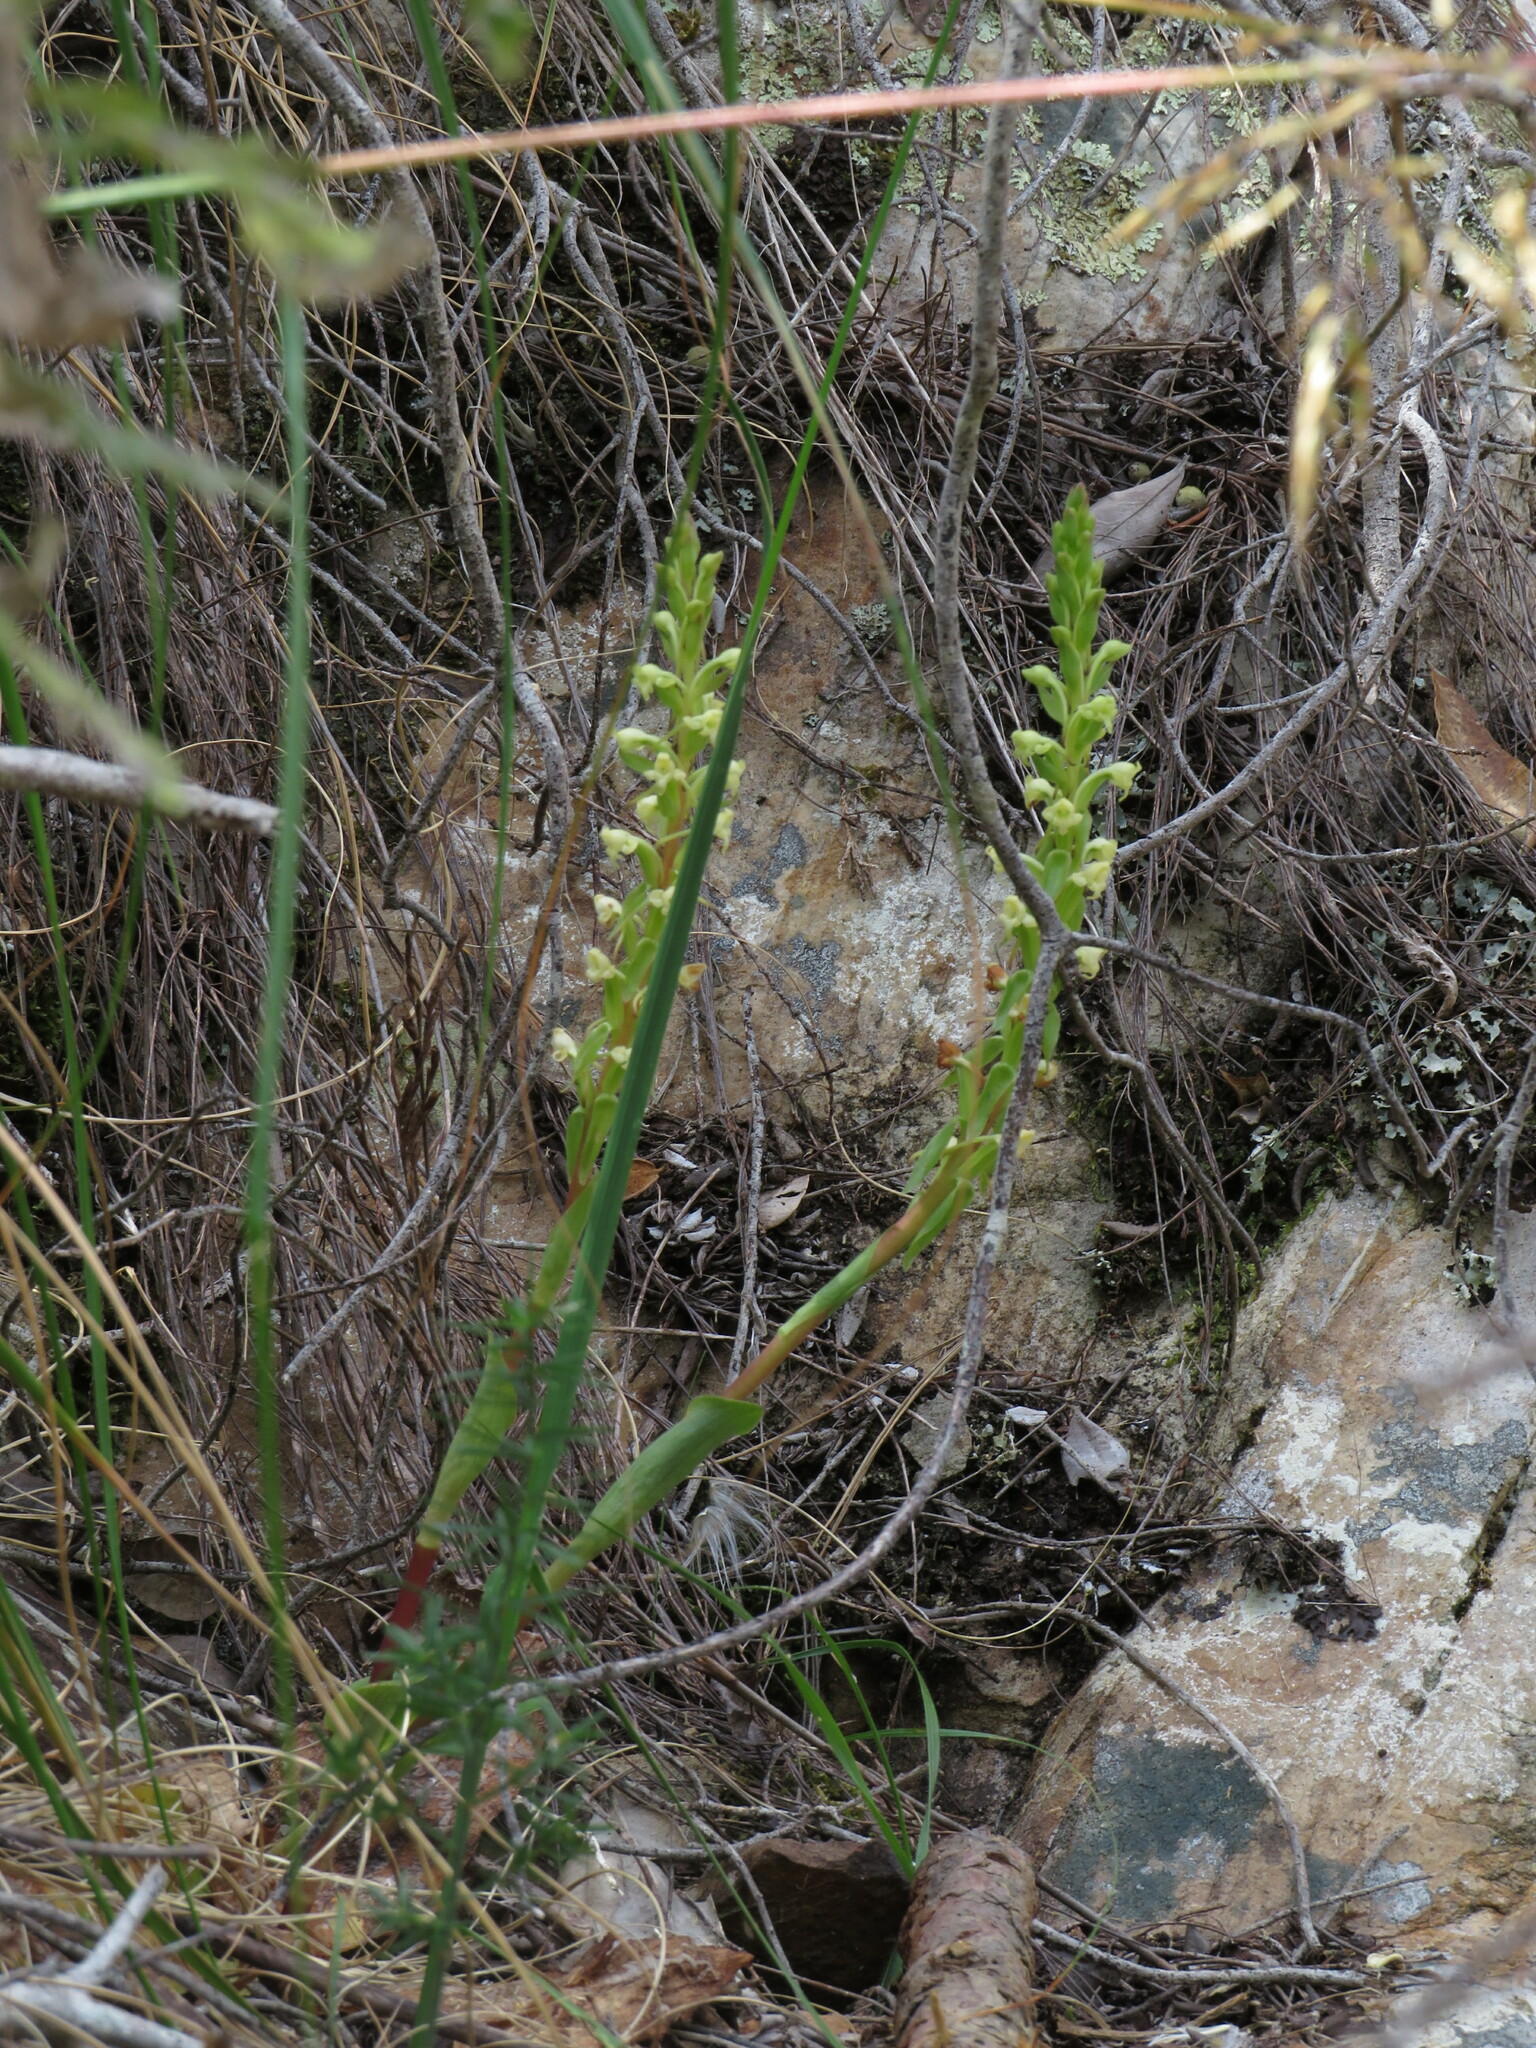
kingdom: Plantae
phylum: Tracheophyta
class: Liliopsida
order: Asparagales
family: Orchidaceae
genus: Satyrium
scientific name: Satyrium humile
